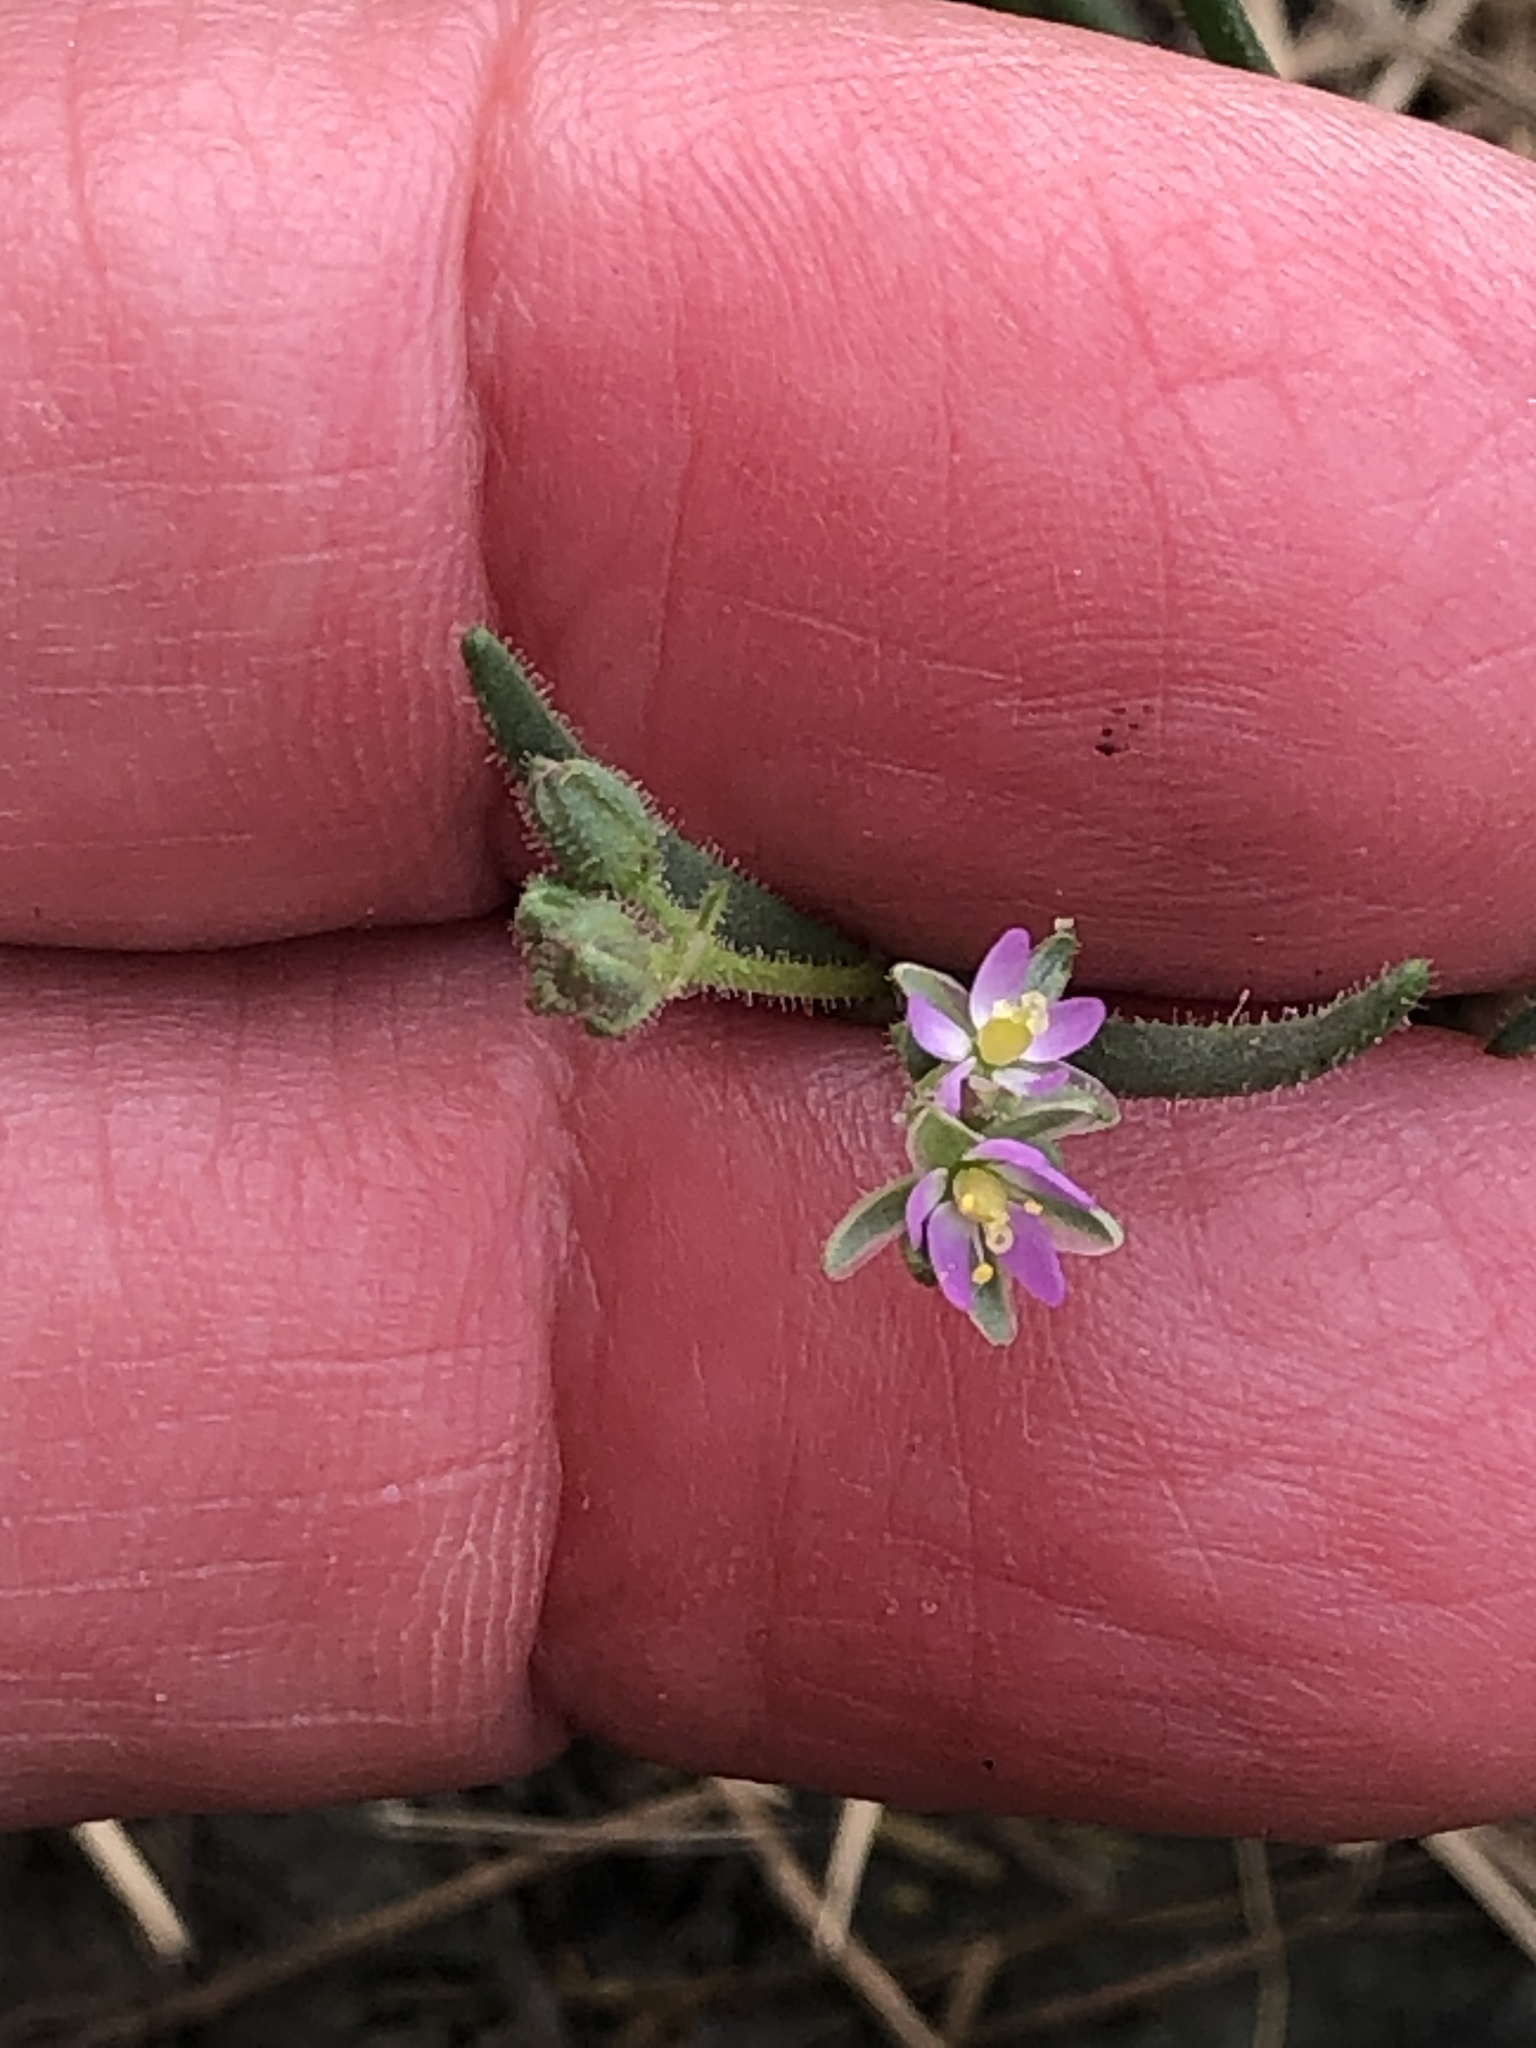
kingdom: Plantae
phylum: Tracheophyta
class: Magnoliopsida
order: Caryophyllales
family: Caryophyllaceae
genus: Spergularia
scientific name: Spergularia rubra
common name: Red sand-spurrey
